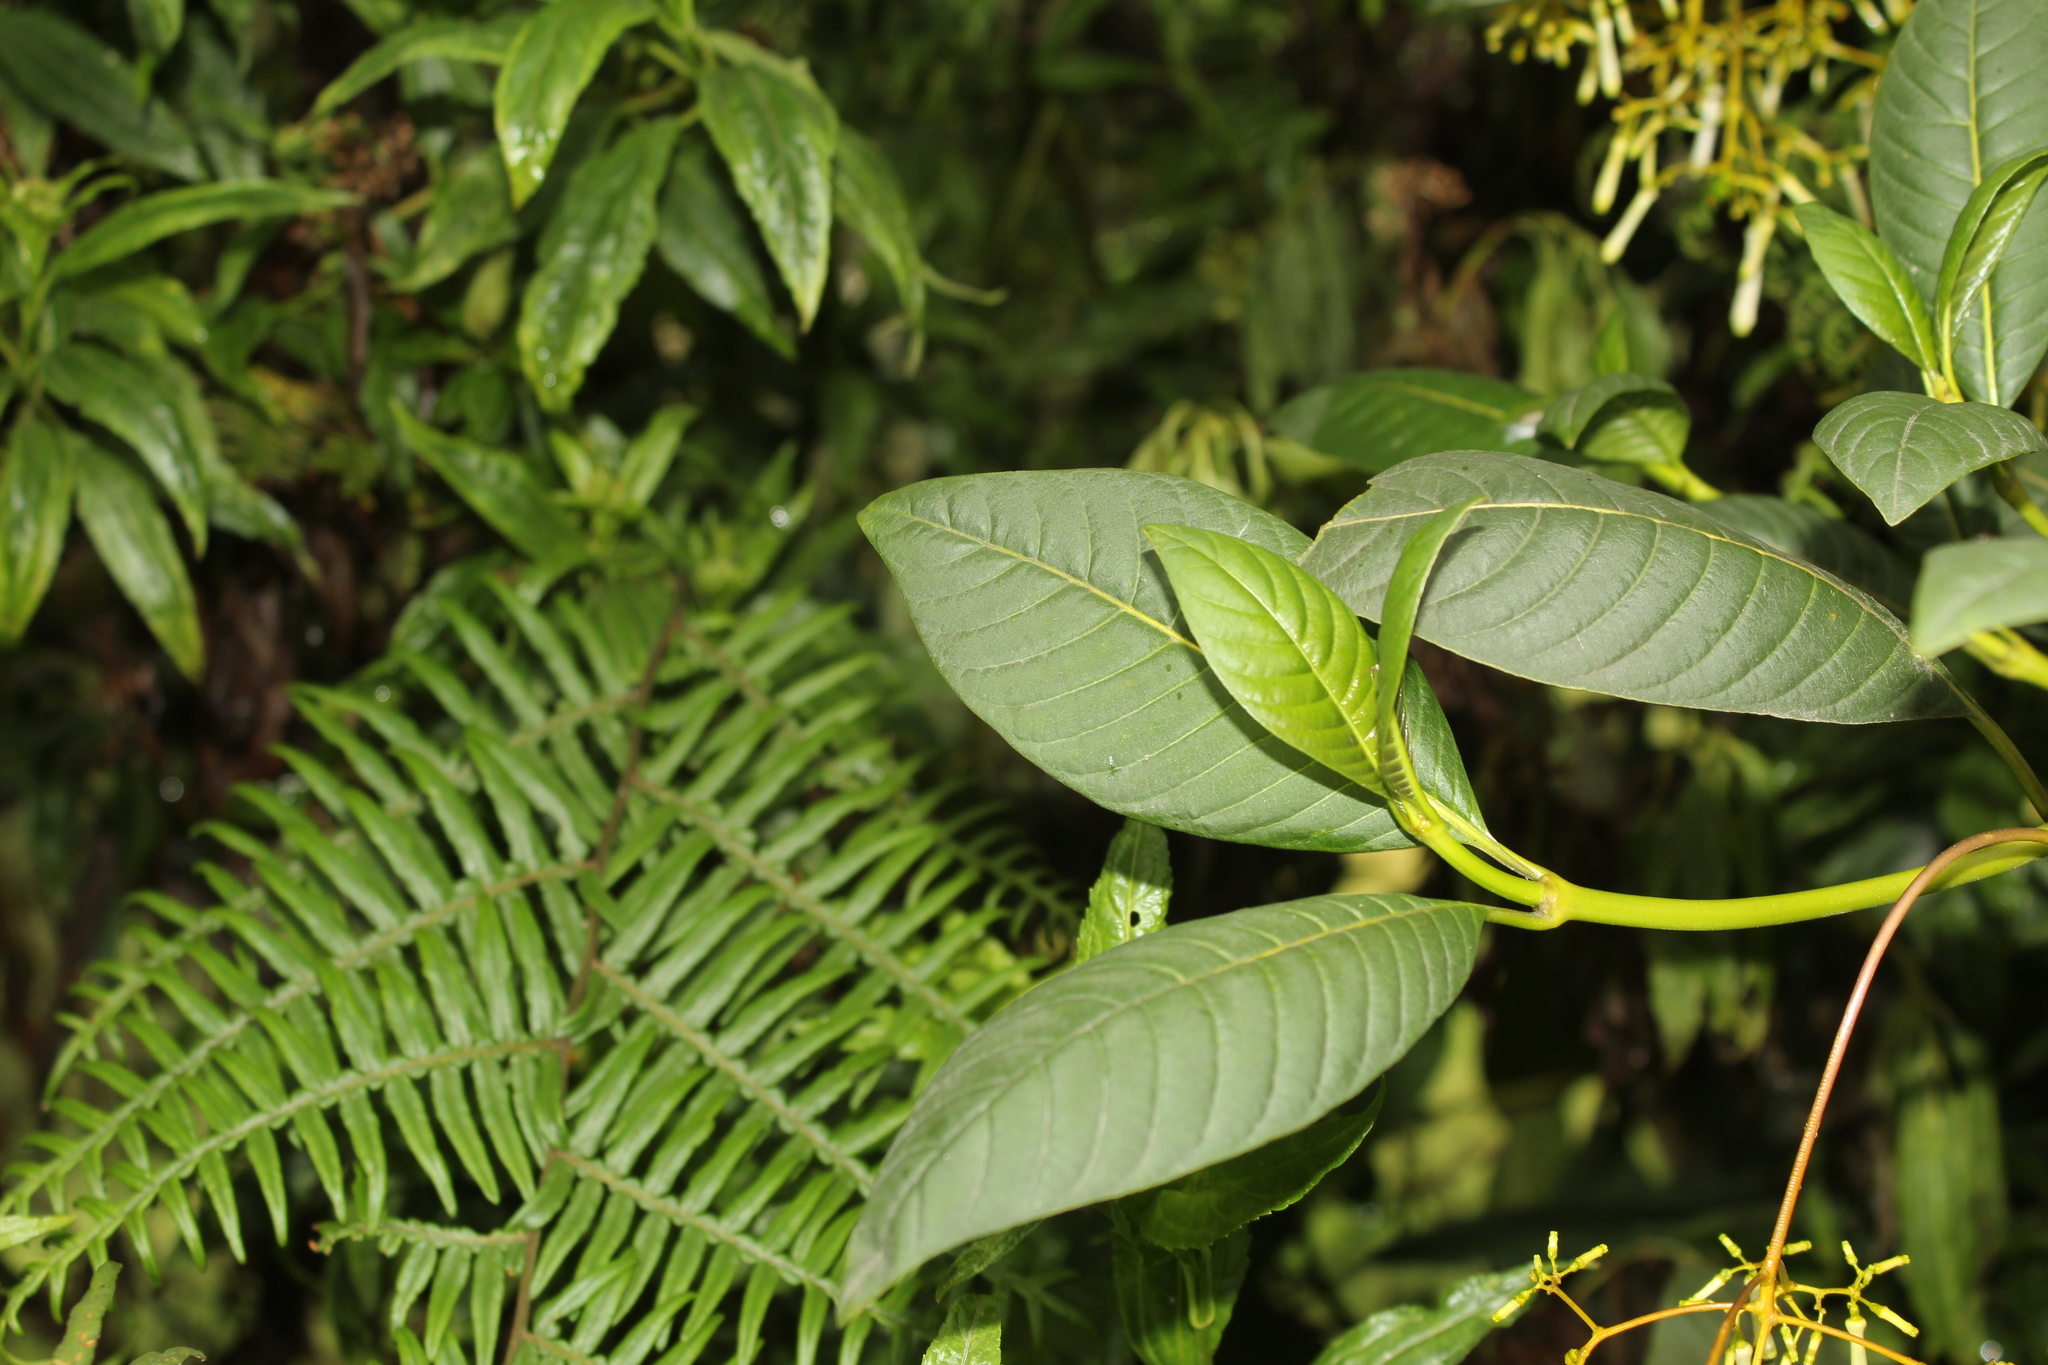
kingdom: Plantae
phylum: Tracheophyta
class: Magnoliopsida
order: Gentianales
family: Rubiaceae
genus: Palicourea
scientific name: Palicourea lineariflora
